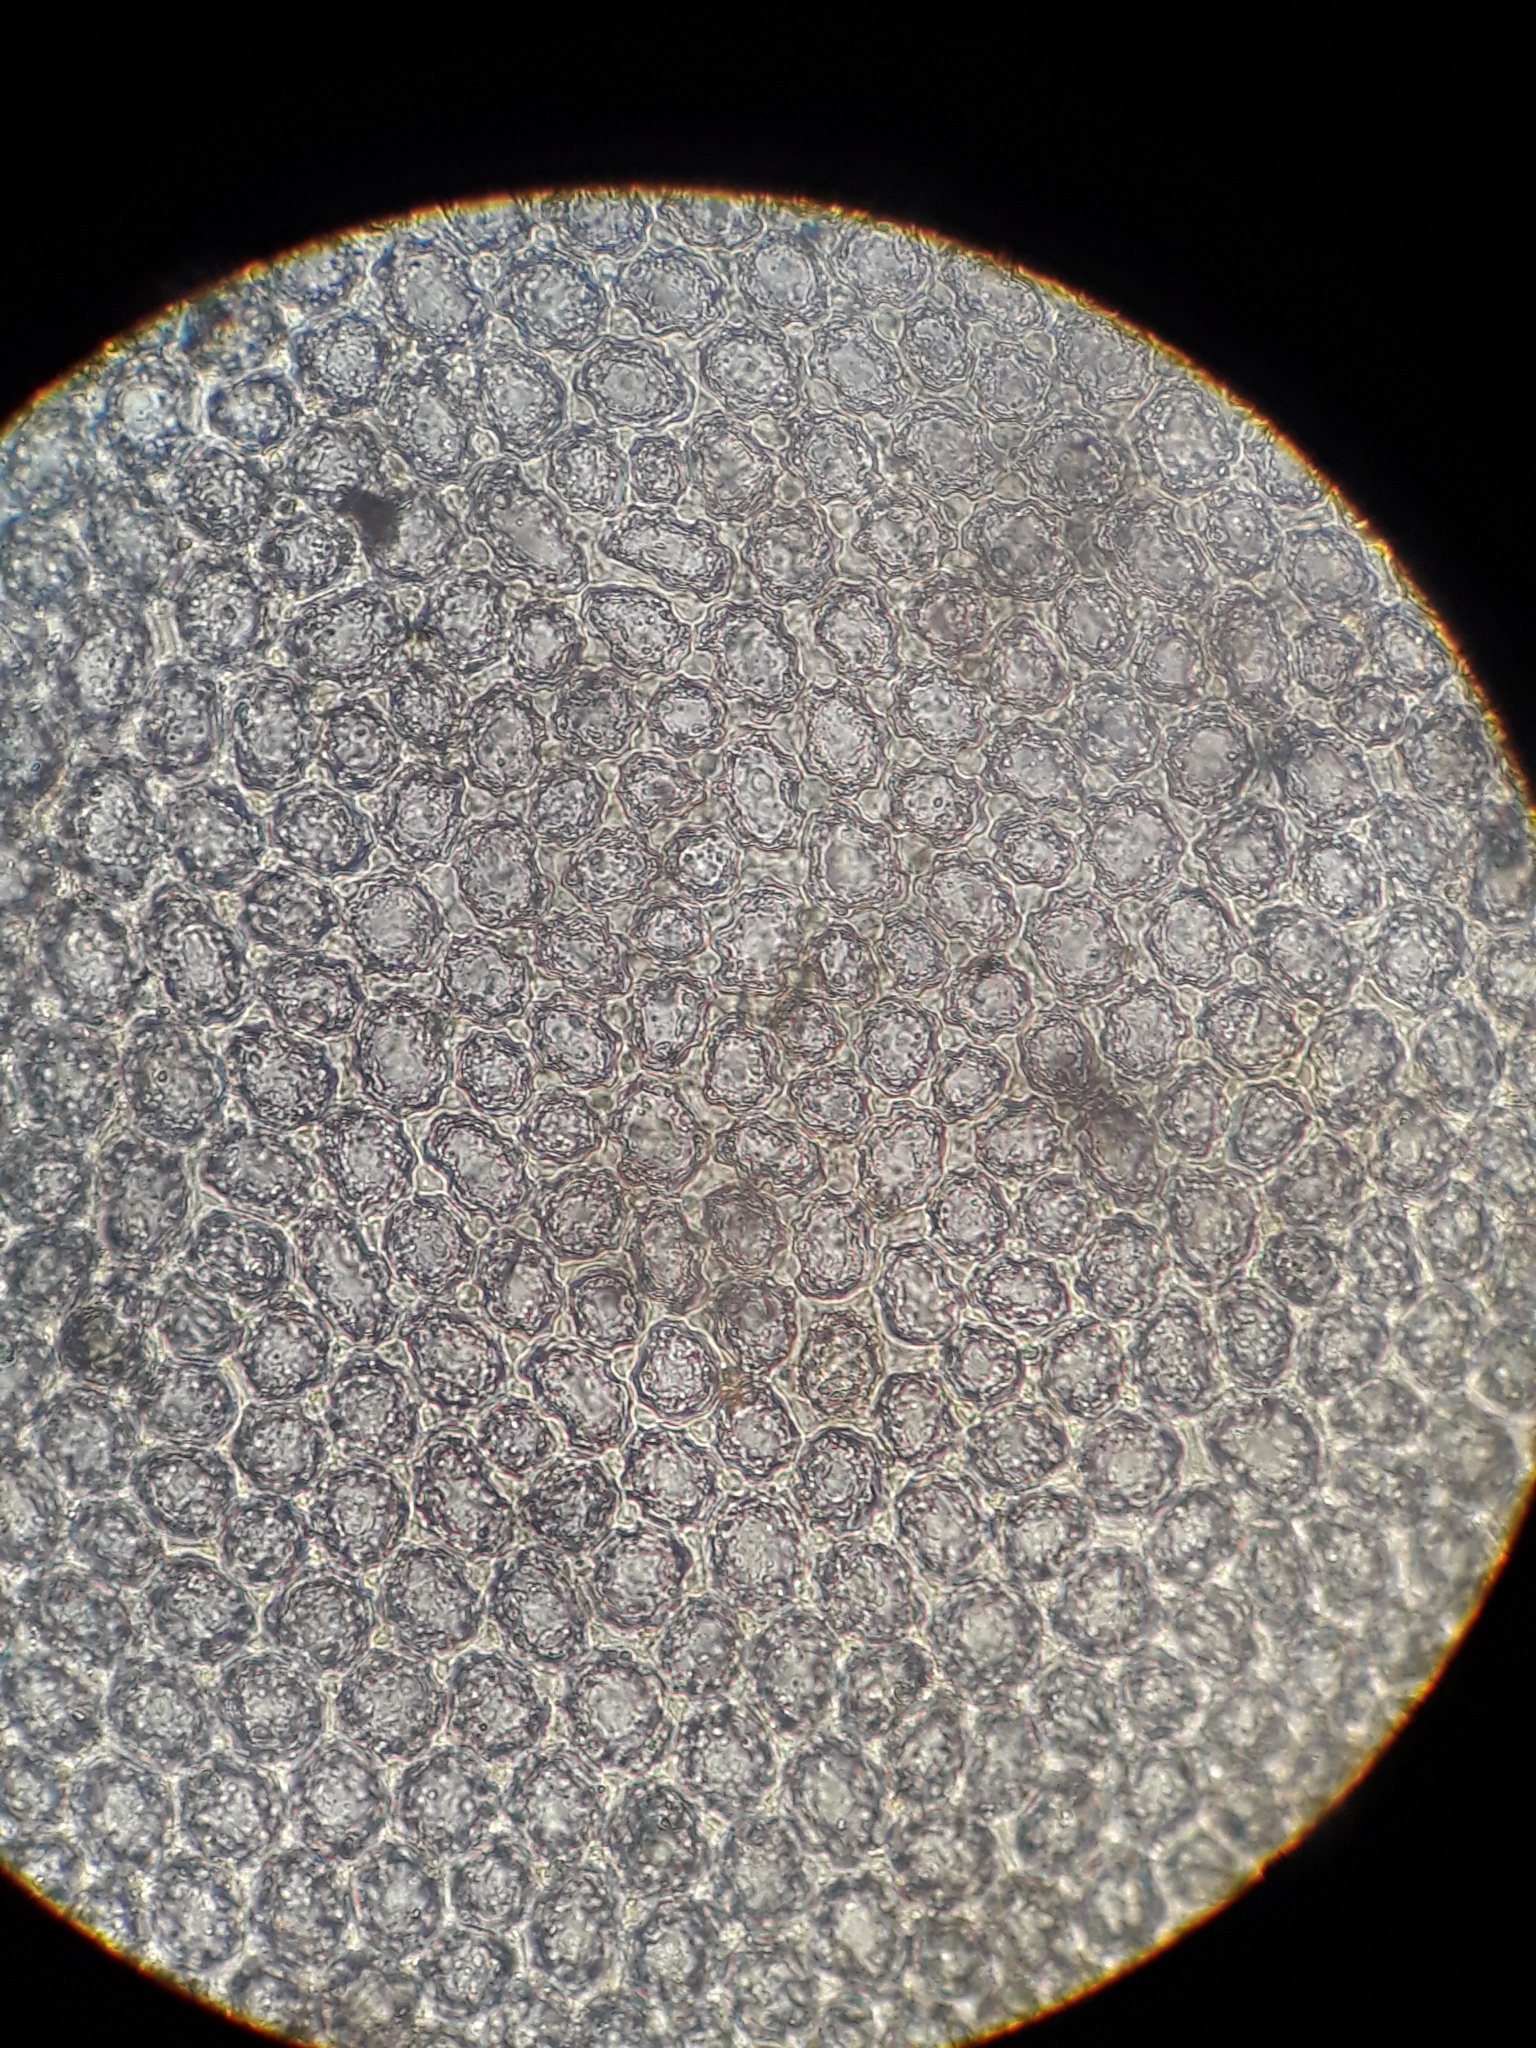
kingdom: Plantae
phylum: Marchantiophyta
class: Jungermanniopsida
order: Jungermanniales
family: Plagiochilaceae
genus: Plagiochila
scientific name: Plagiochila colensoi
